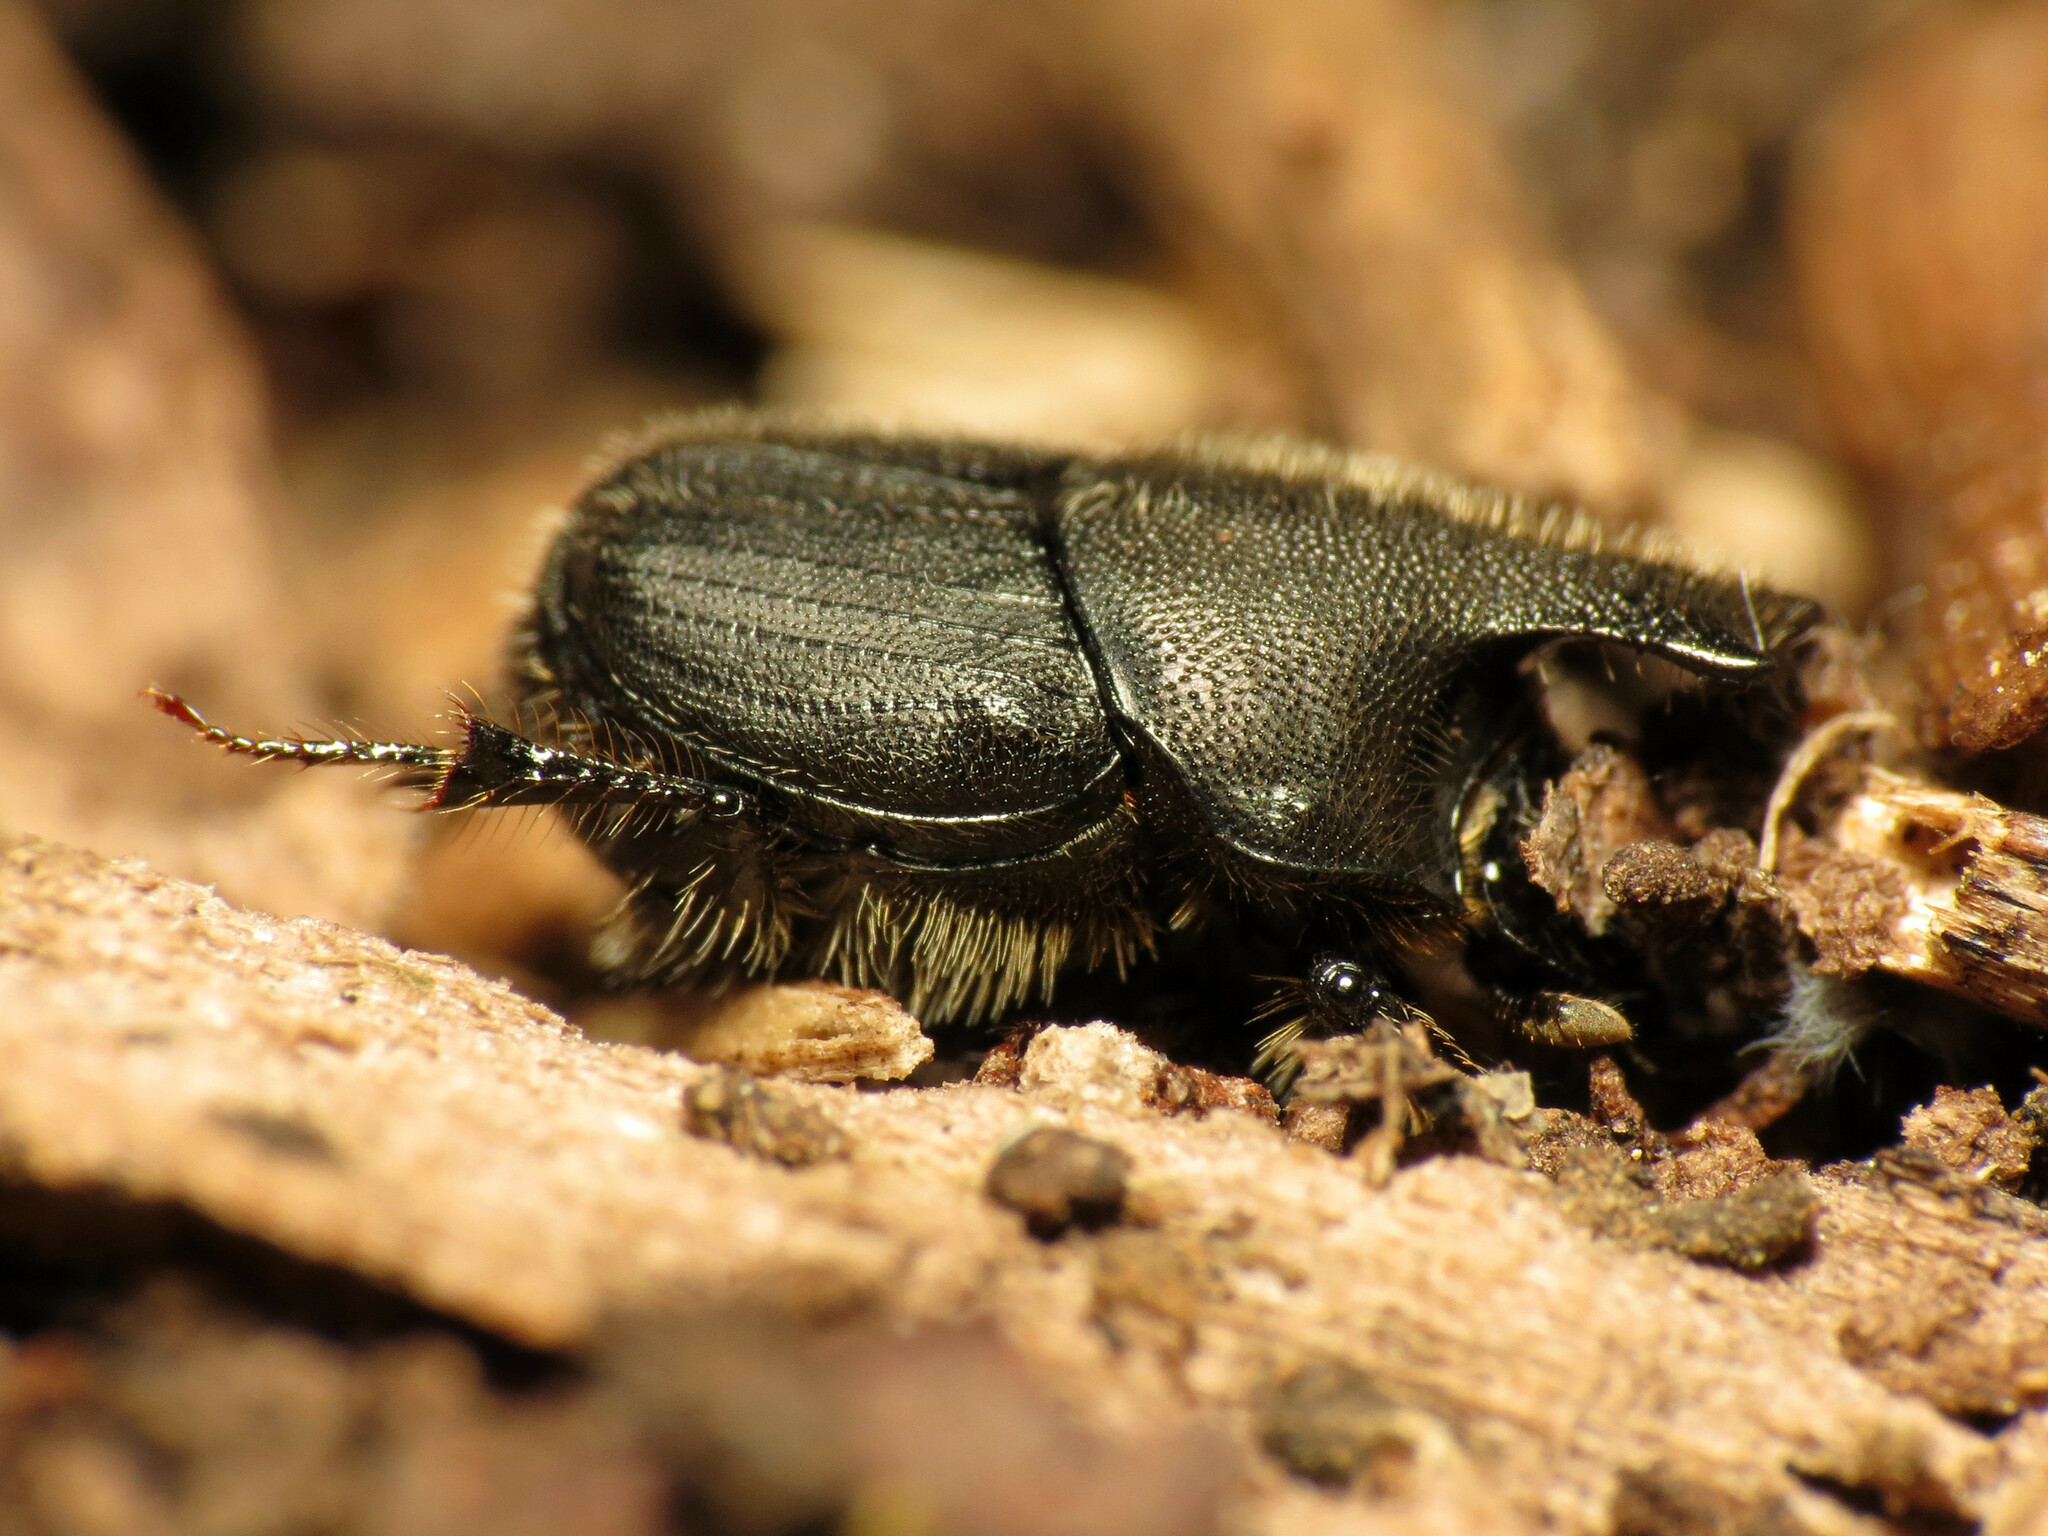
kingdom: Animalia
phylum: Arthropoda
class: Insecta
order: Coleoptera
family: Scarabaeidae
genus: Onthophagus
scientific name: Onthophagus hecate
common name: Scooped scarab
